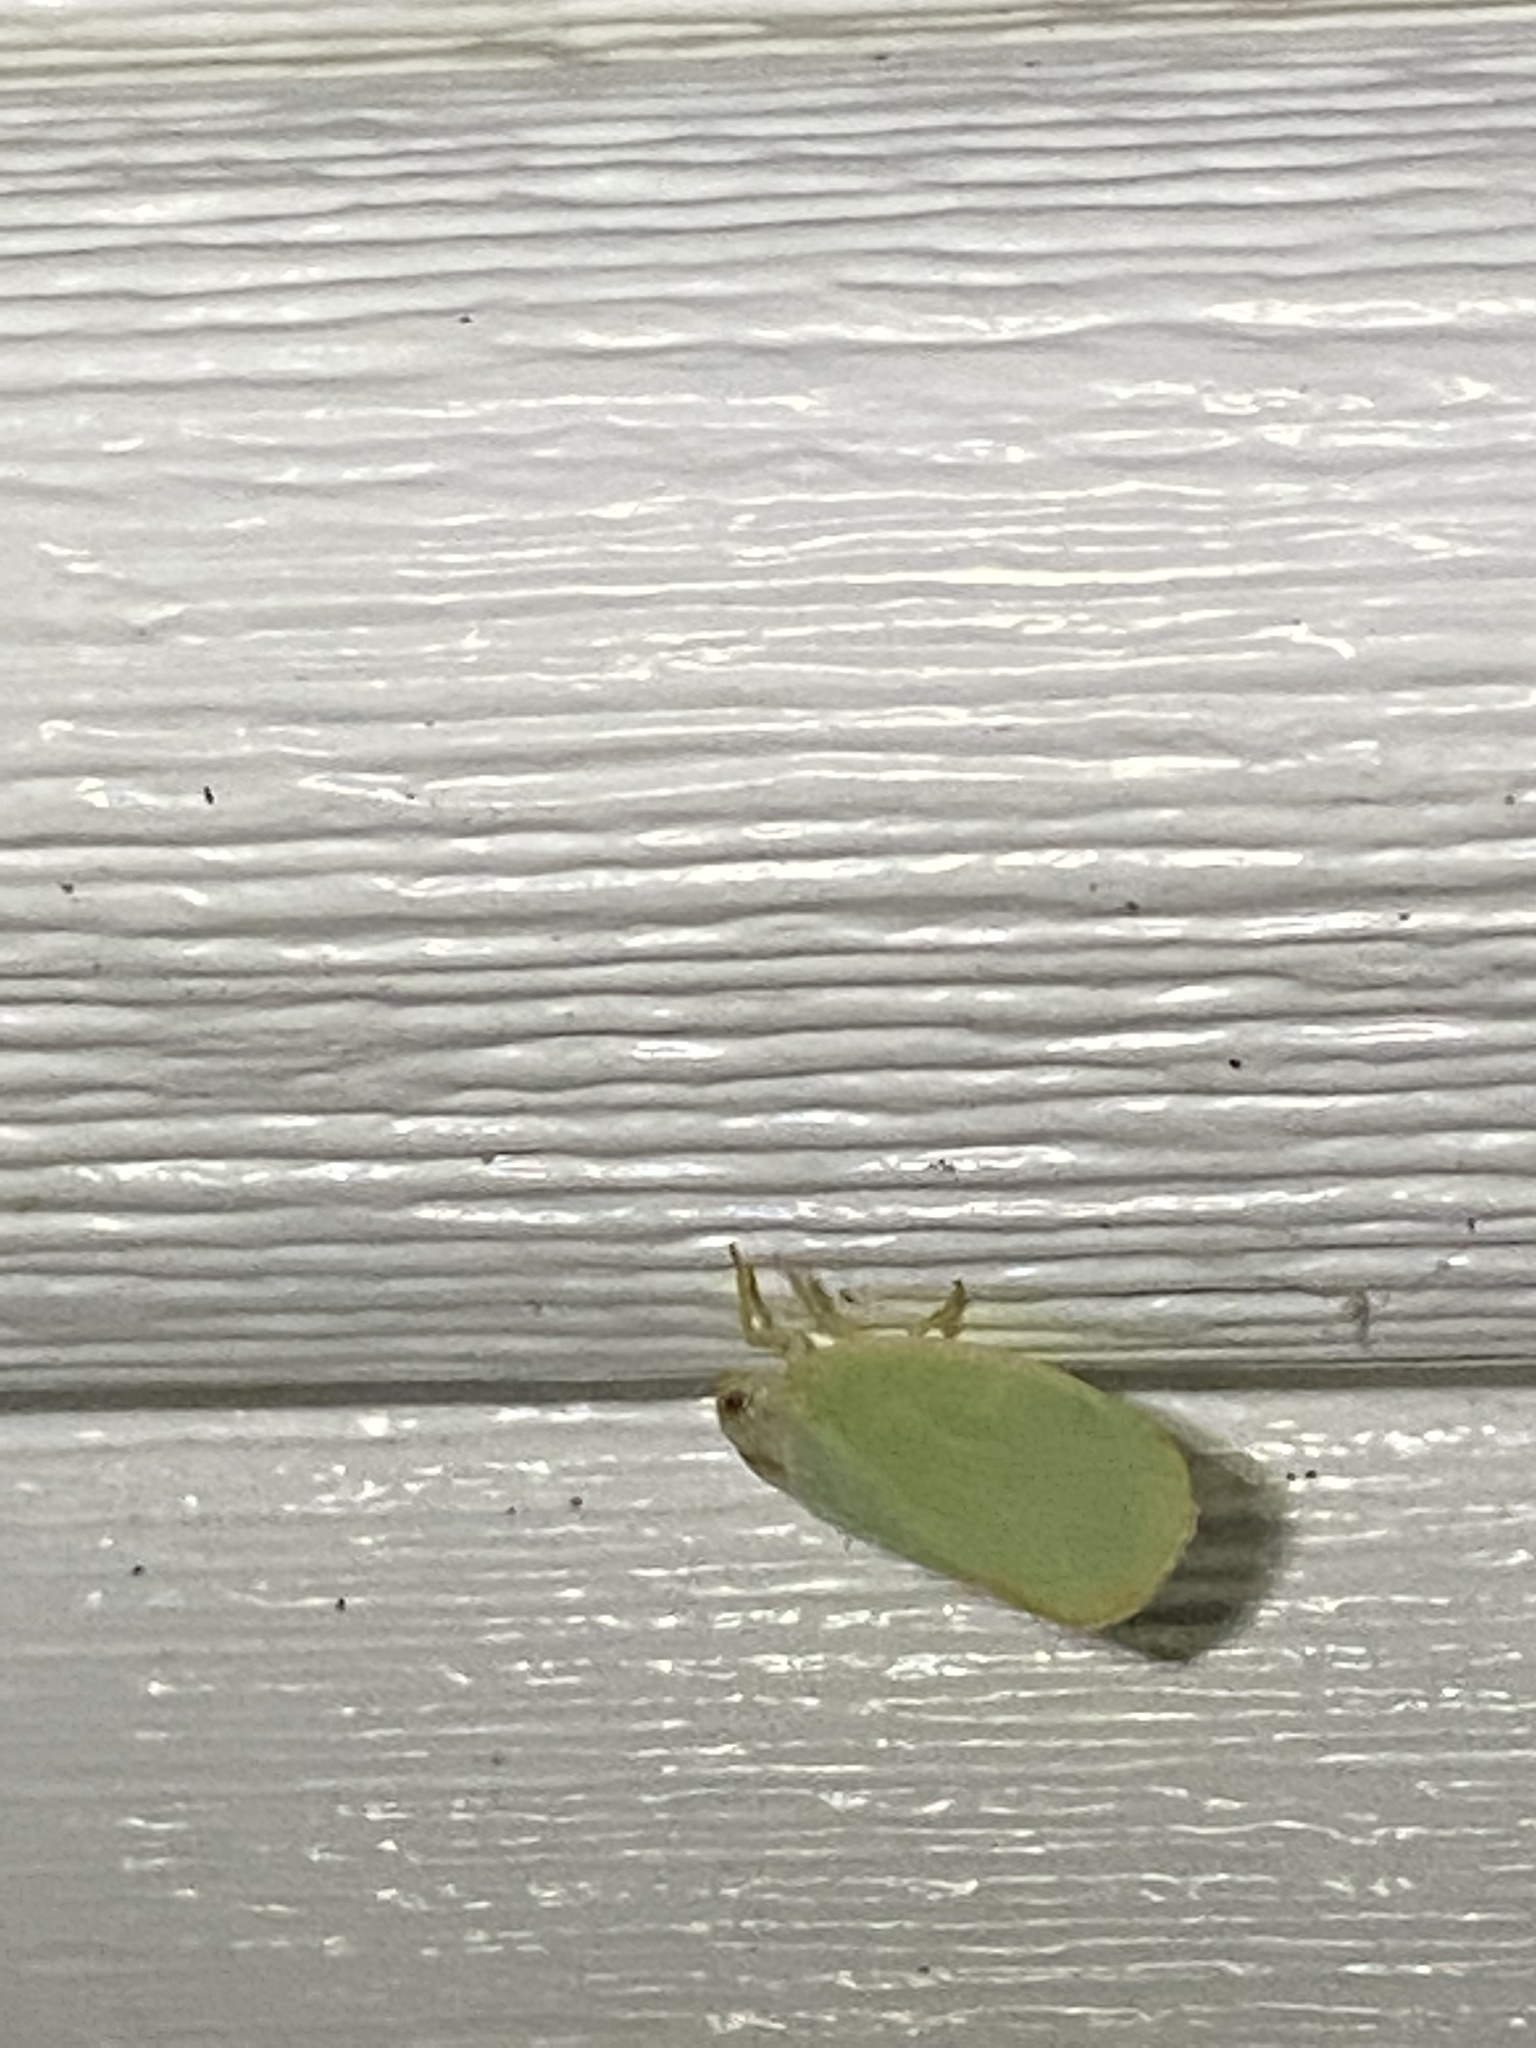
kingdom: Animalia
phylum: Arthropoda
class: Insecta
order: Hemiptera
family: Flatidae
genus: Ormenoides
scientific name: Ormenoides venusta
